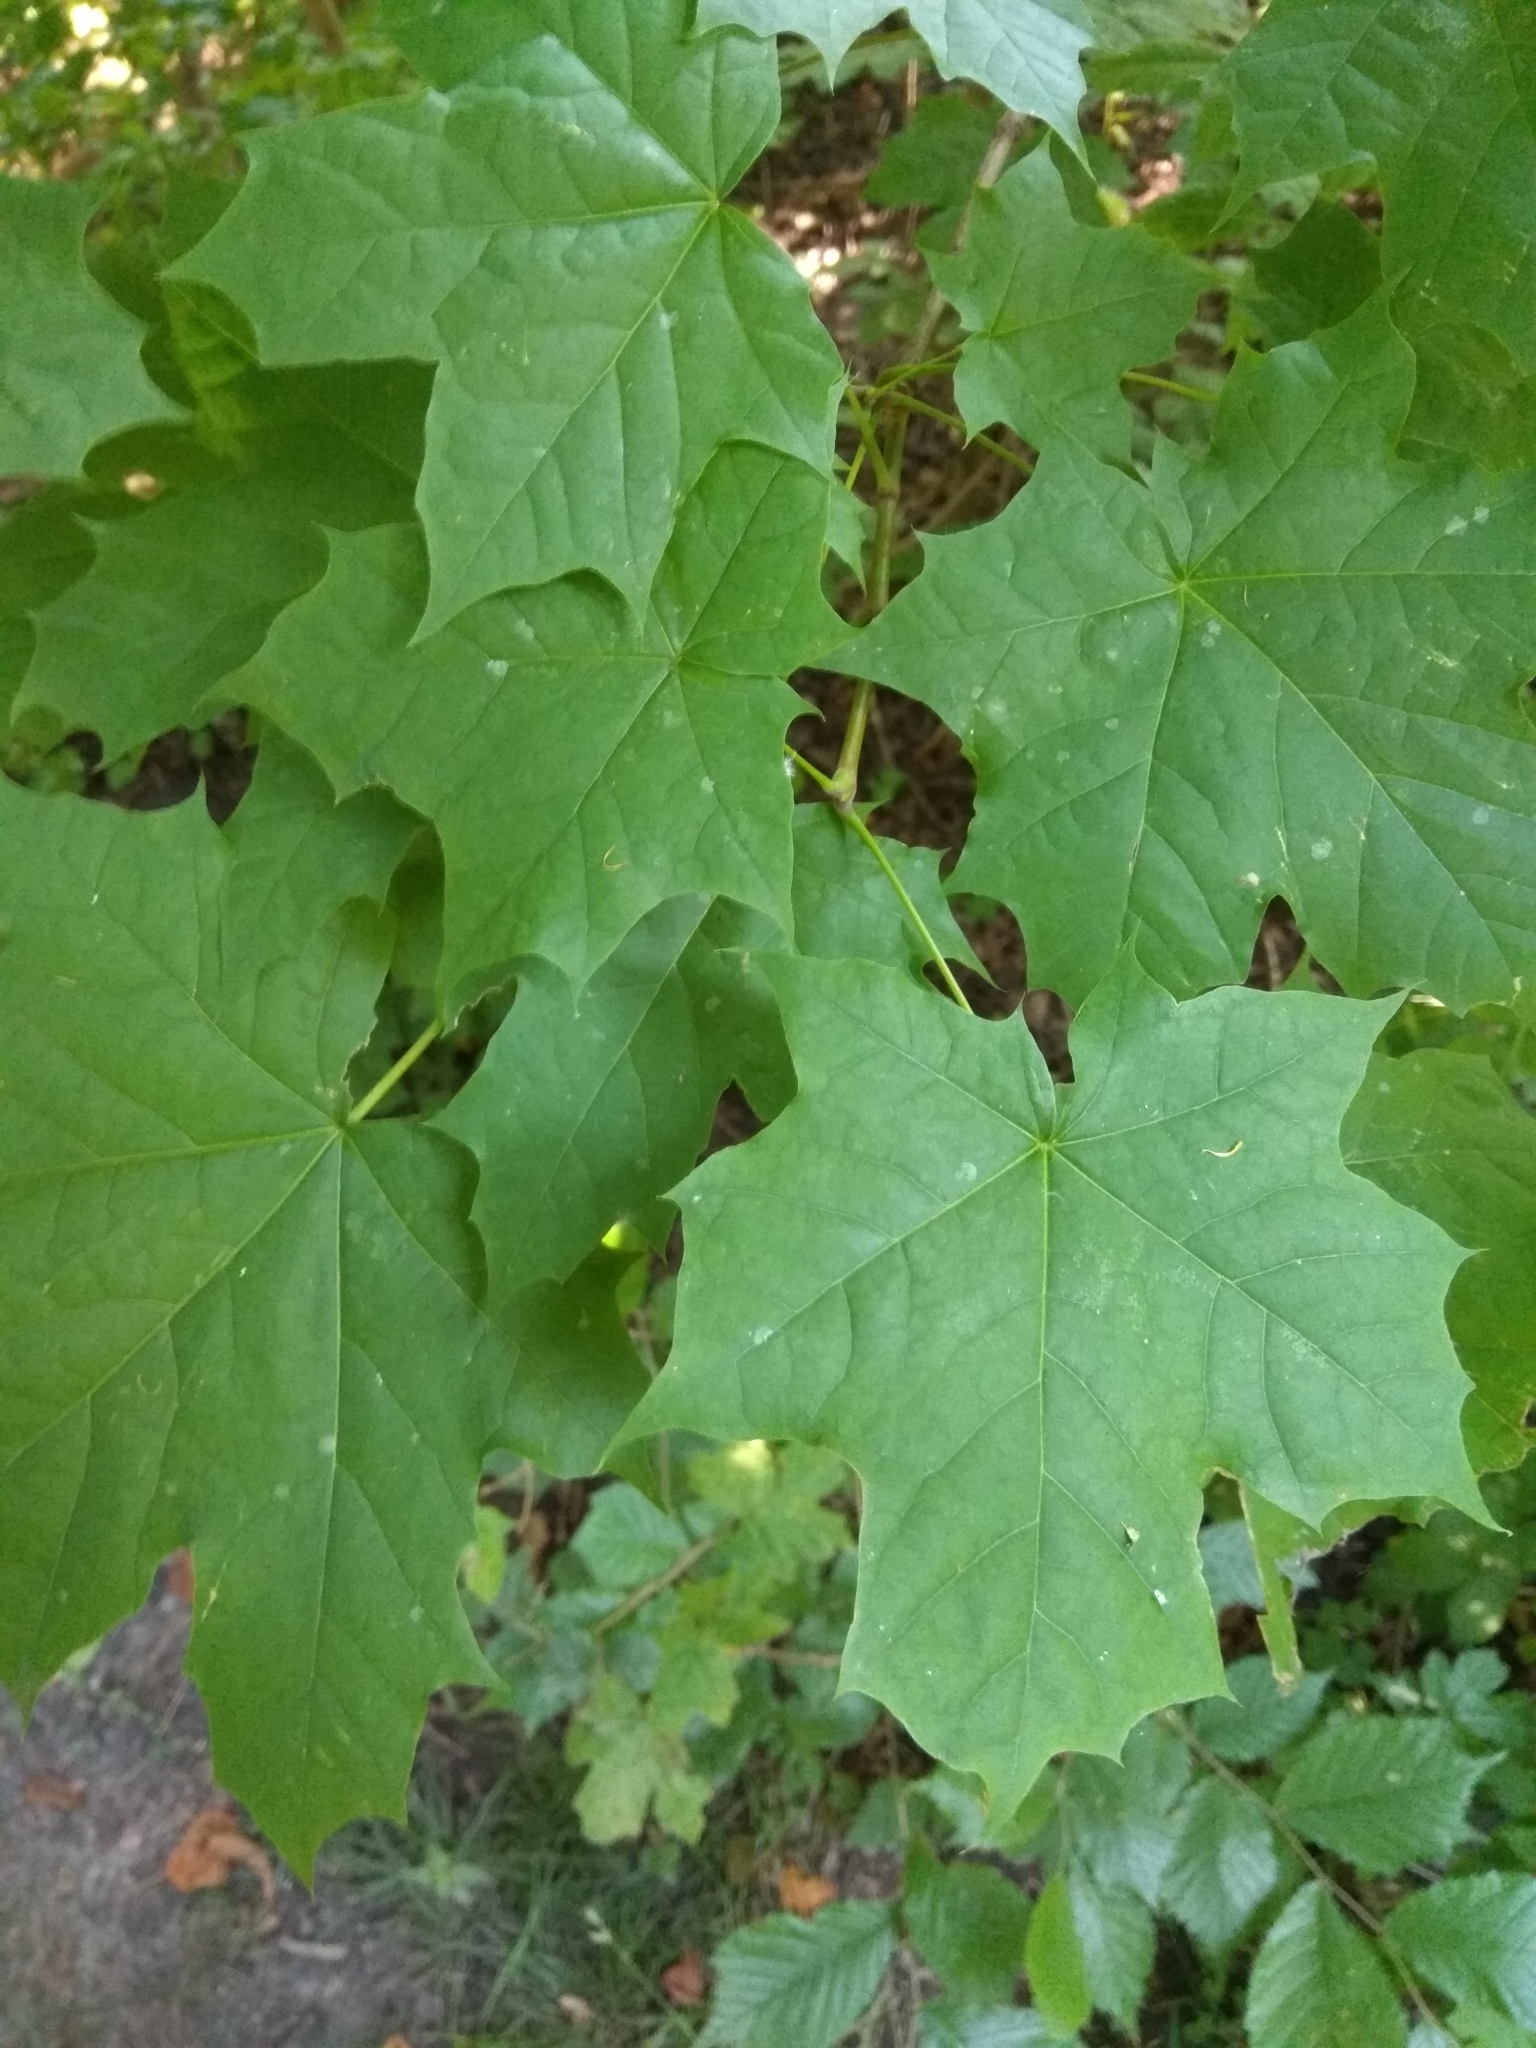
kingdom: Plantae
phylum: Tracheophyta
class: Magnoliopsida
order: Sapindales
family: Sapindaceae
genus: Acer
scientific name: Acer platanoides
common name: Norway maple
